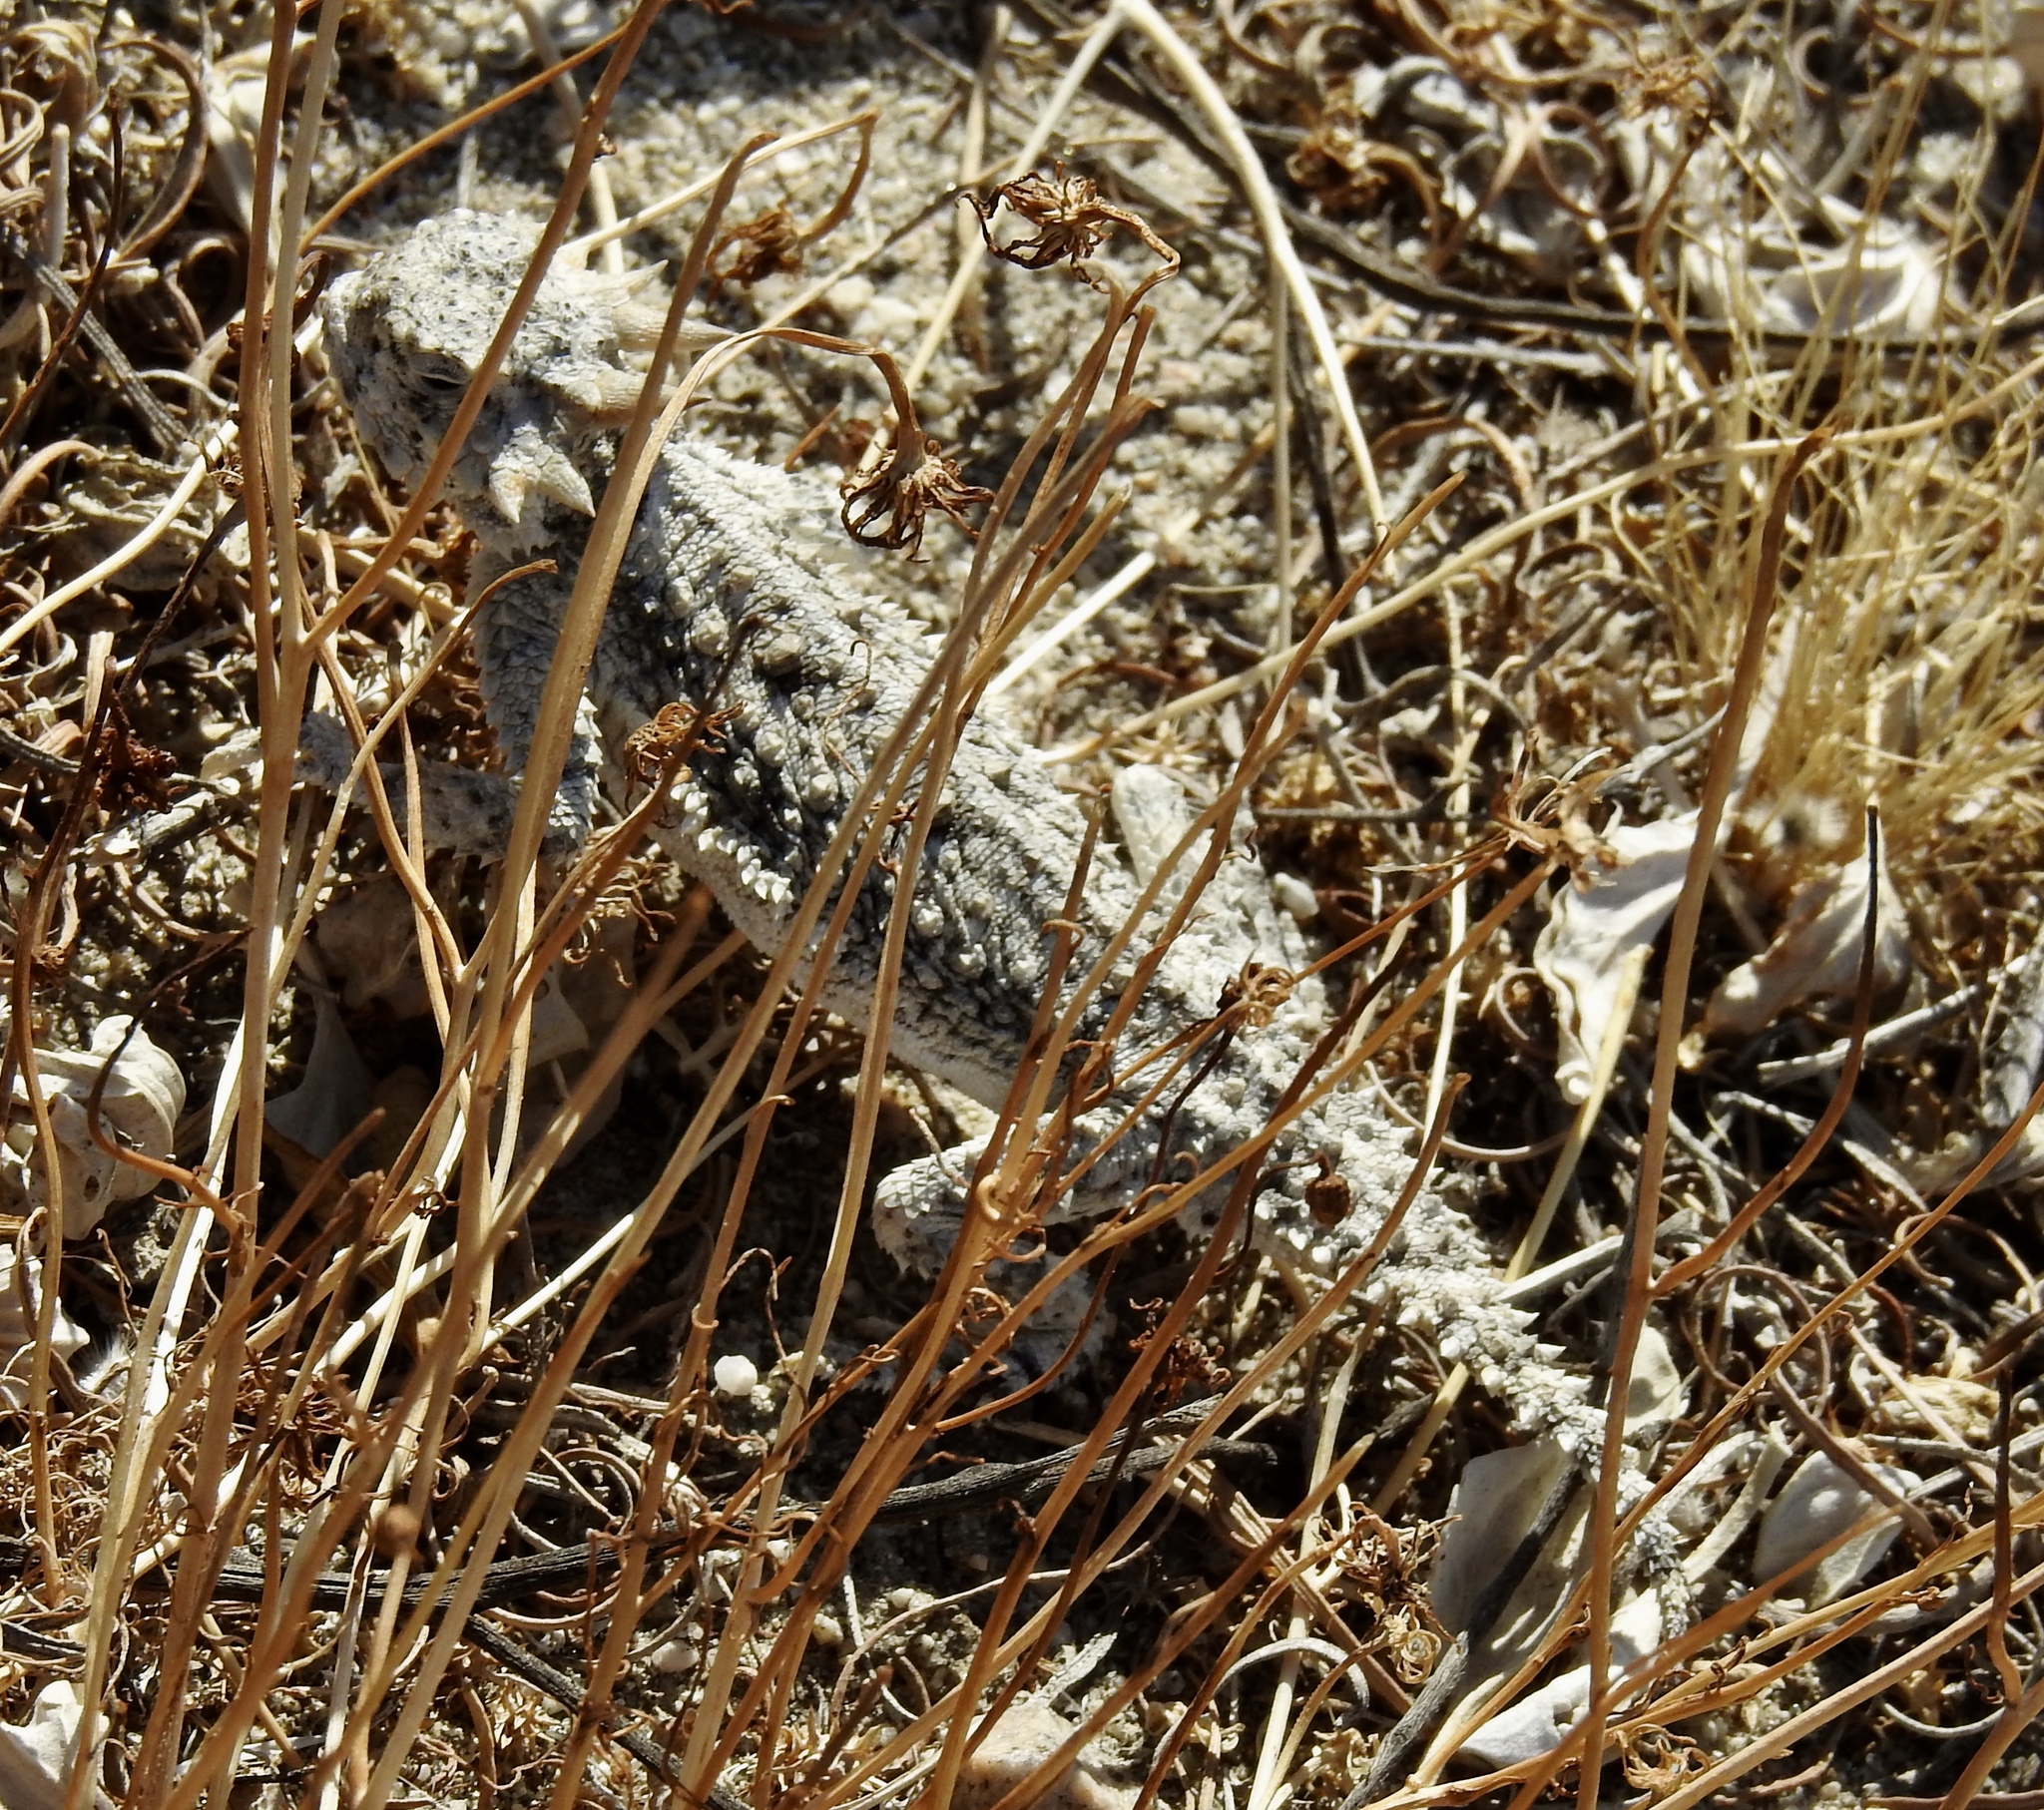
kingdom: Animalia
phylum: Chordata
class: Squamata
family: Phrynosomatidae
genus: Phrynosoma
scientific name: Phrynosoma platyrhinos
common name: Desert horned lizard
